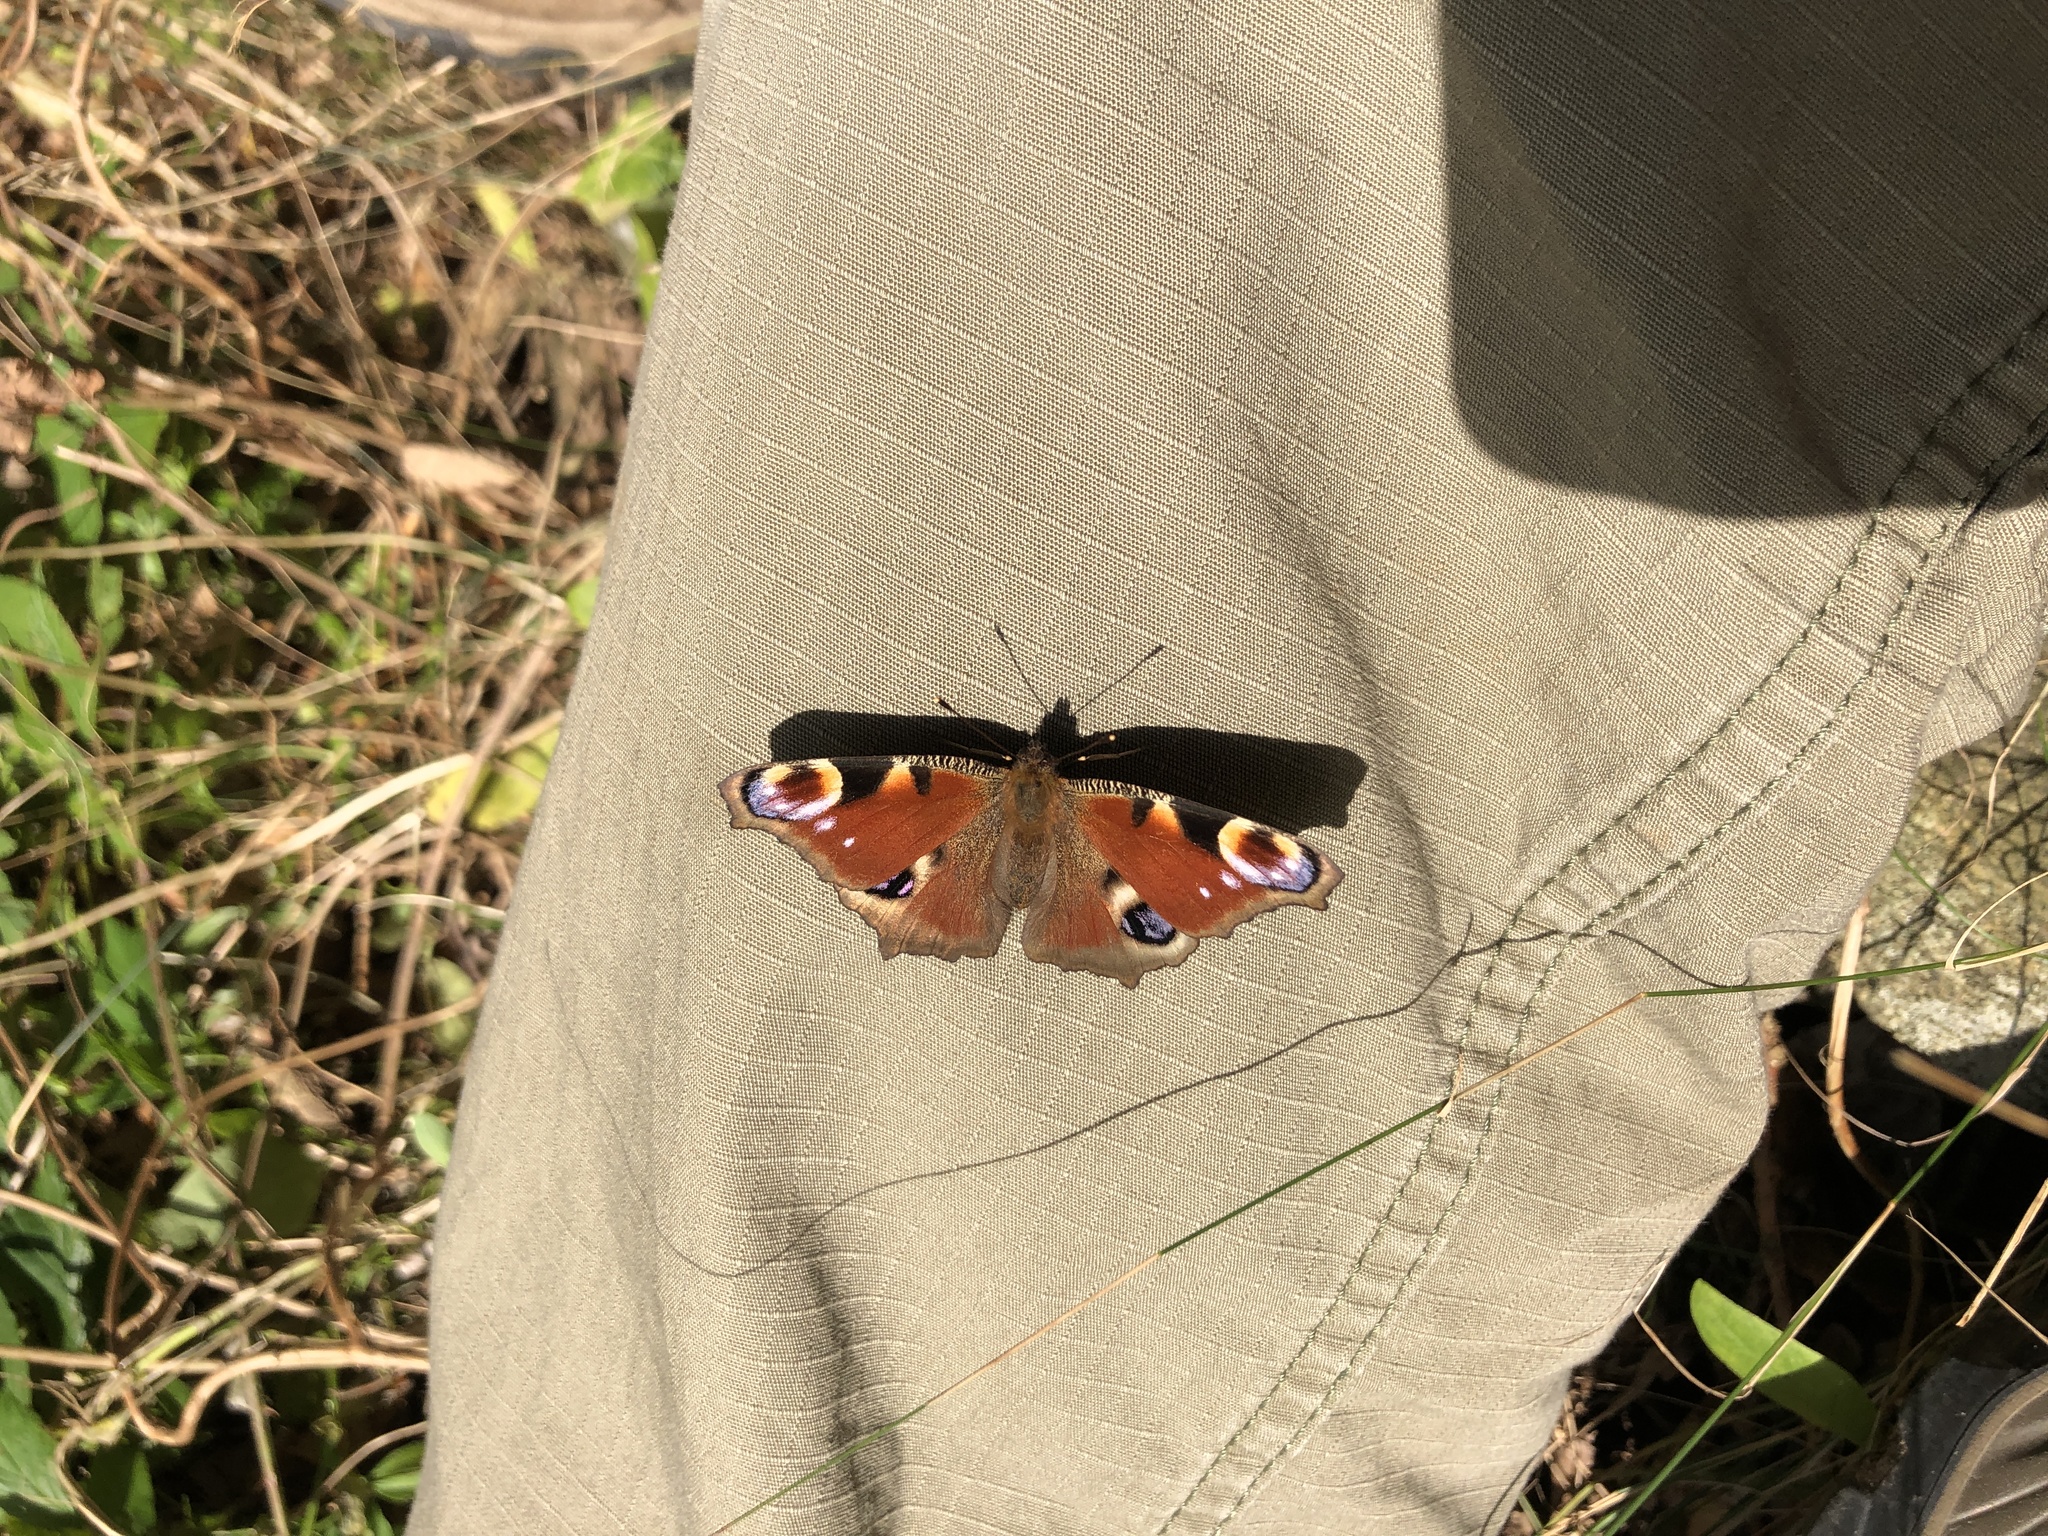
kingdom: Animalia
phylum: Arthropoda
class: Insecta
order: Lepidoptera
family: Nymphalidae
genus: Aglais
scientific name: Aglais io
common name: Peacock
